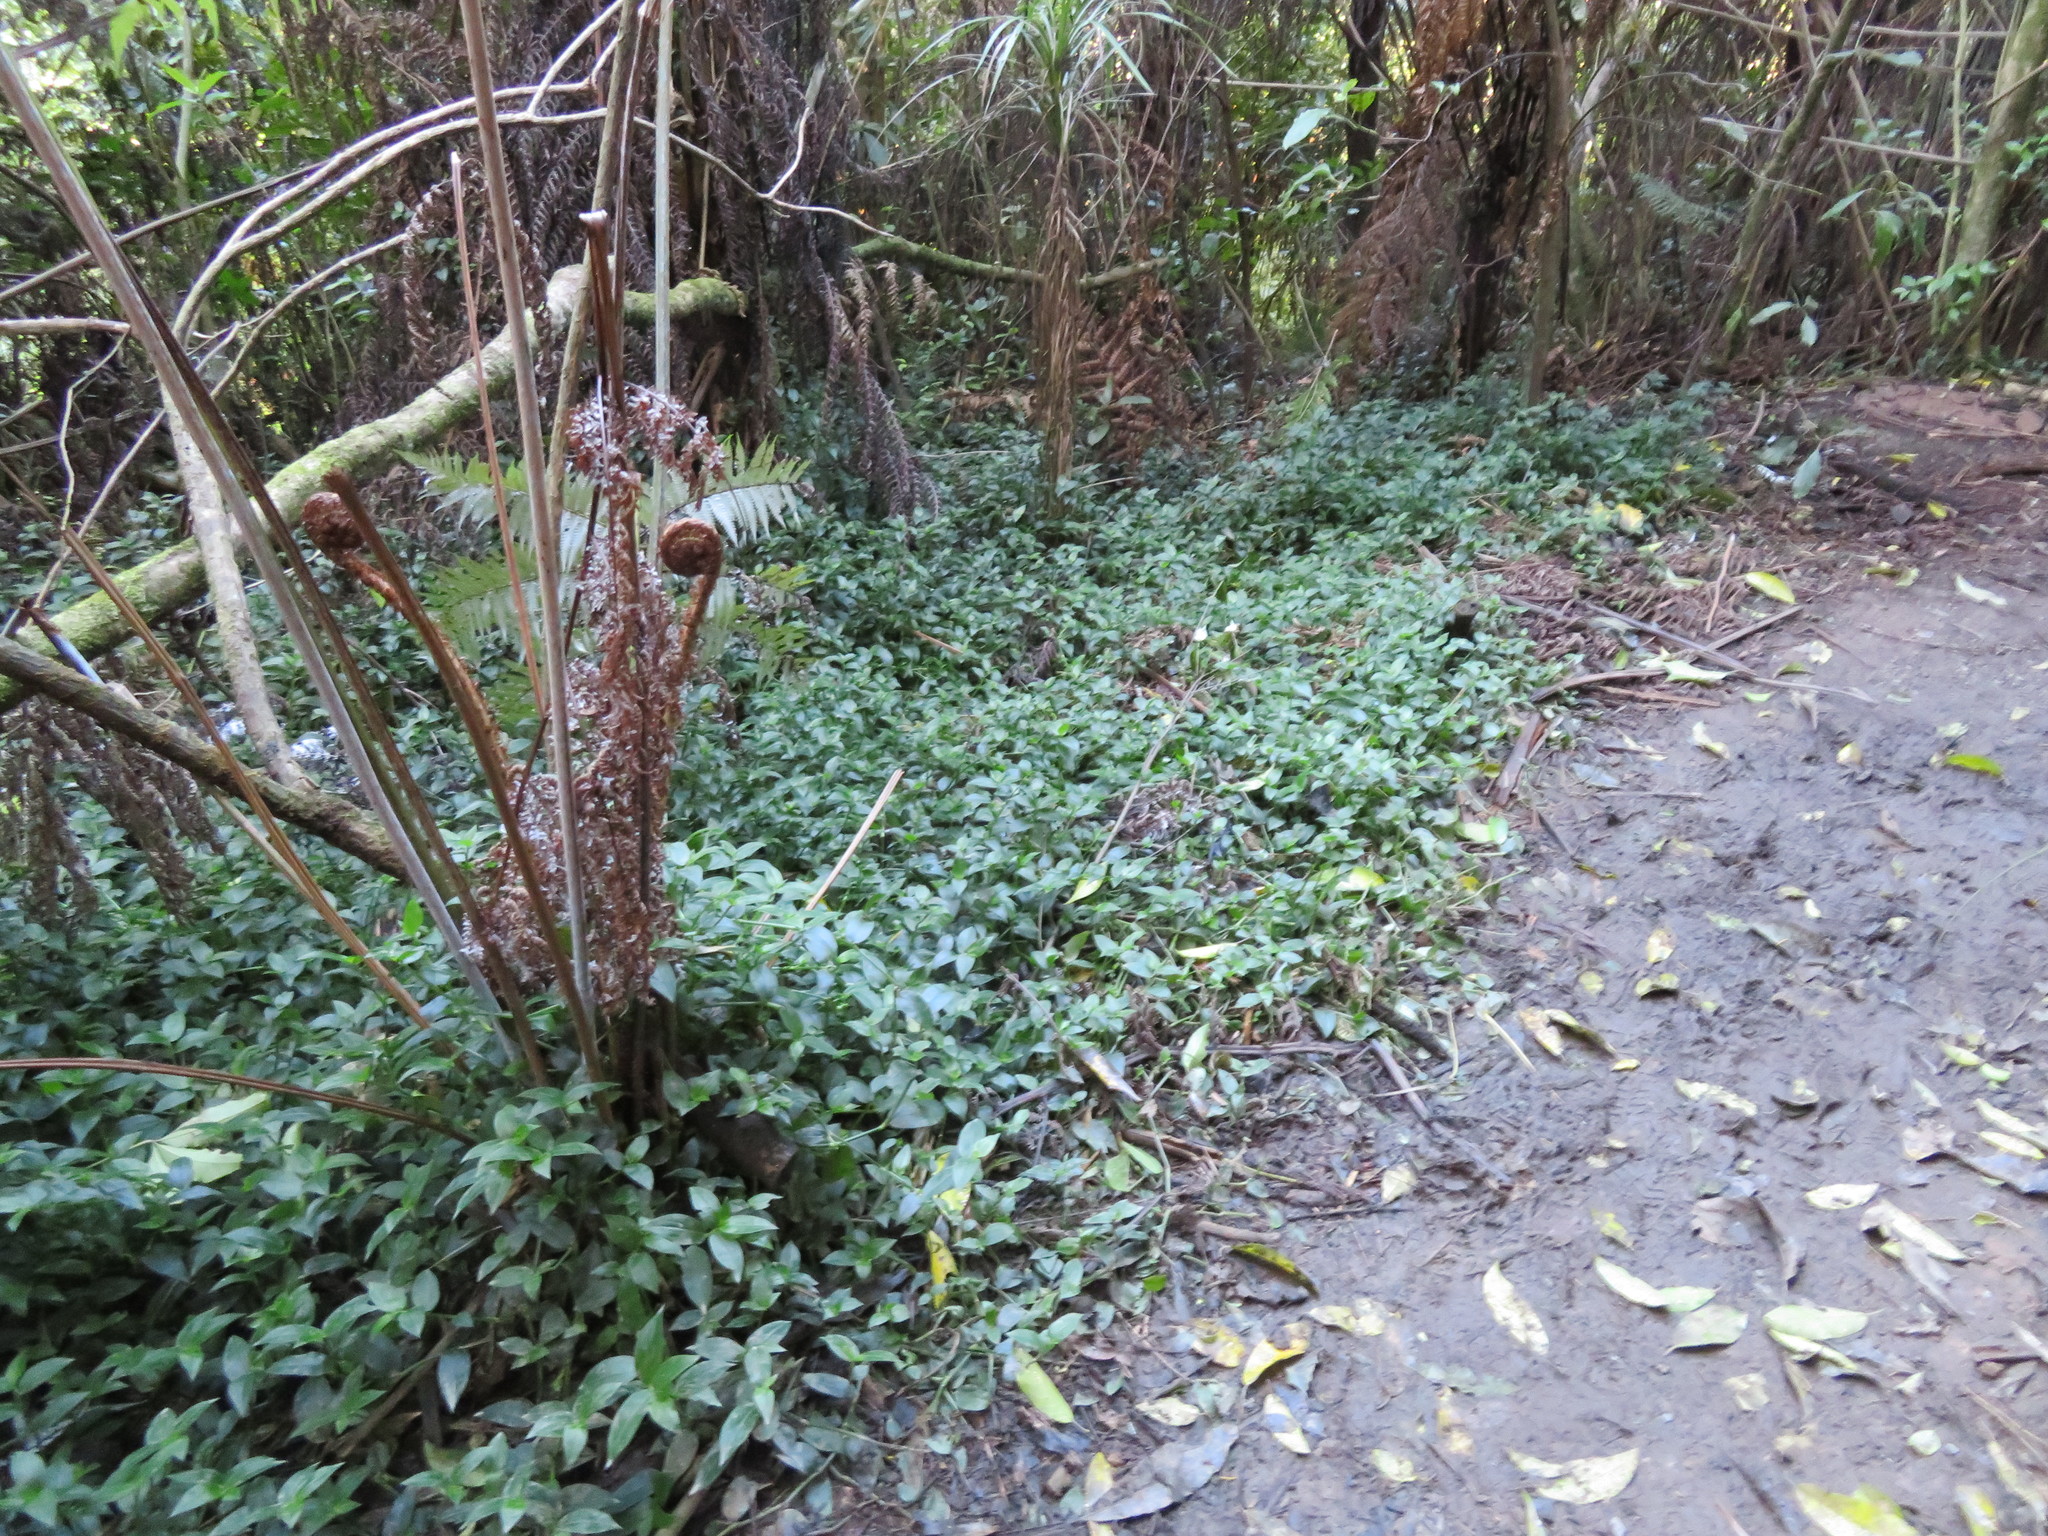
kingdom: Plantae
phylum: Tracheophyta
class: Liliopsida
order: Commelinales
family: Commelinaceae
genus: Tradescantia
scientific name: Tradescantia fluminensis
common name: Wandering-jew
